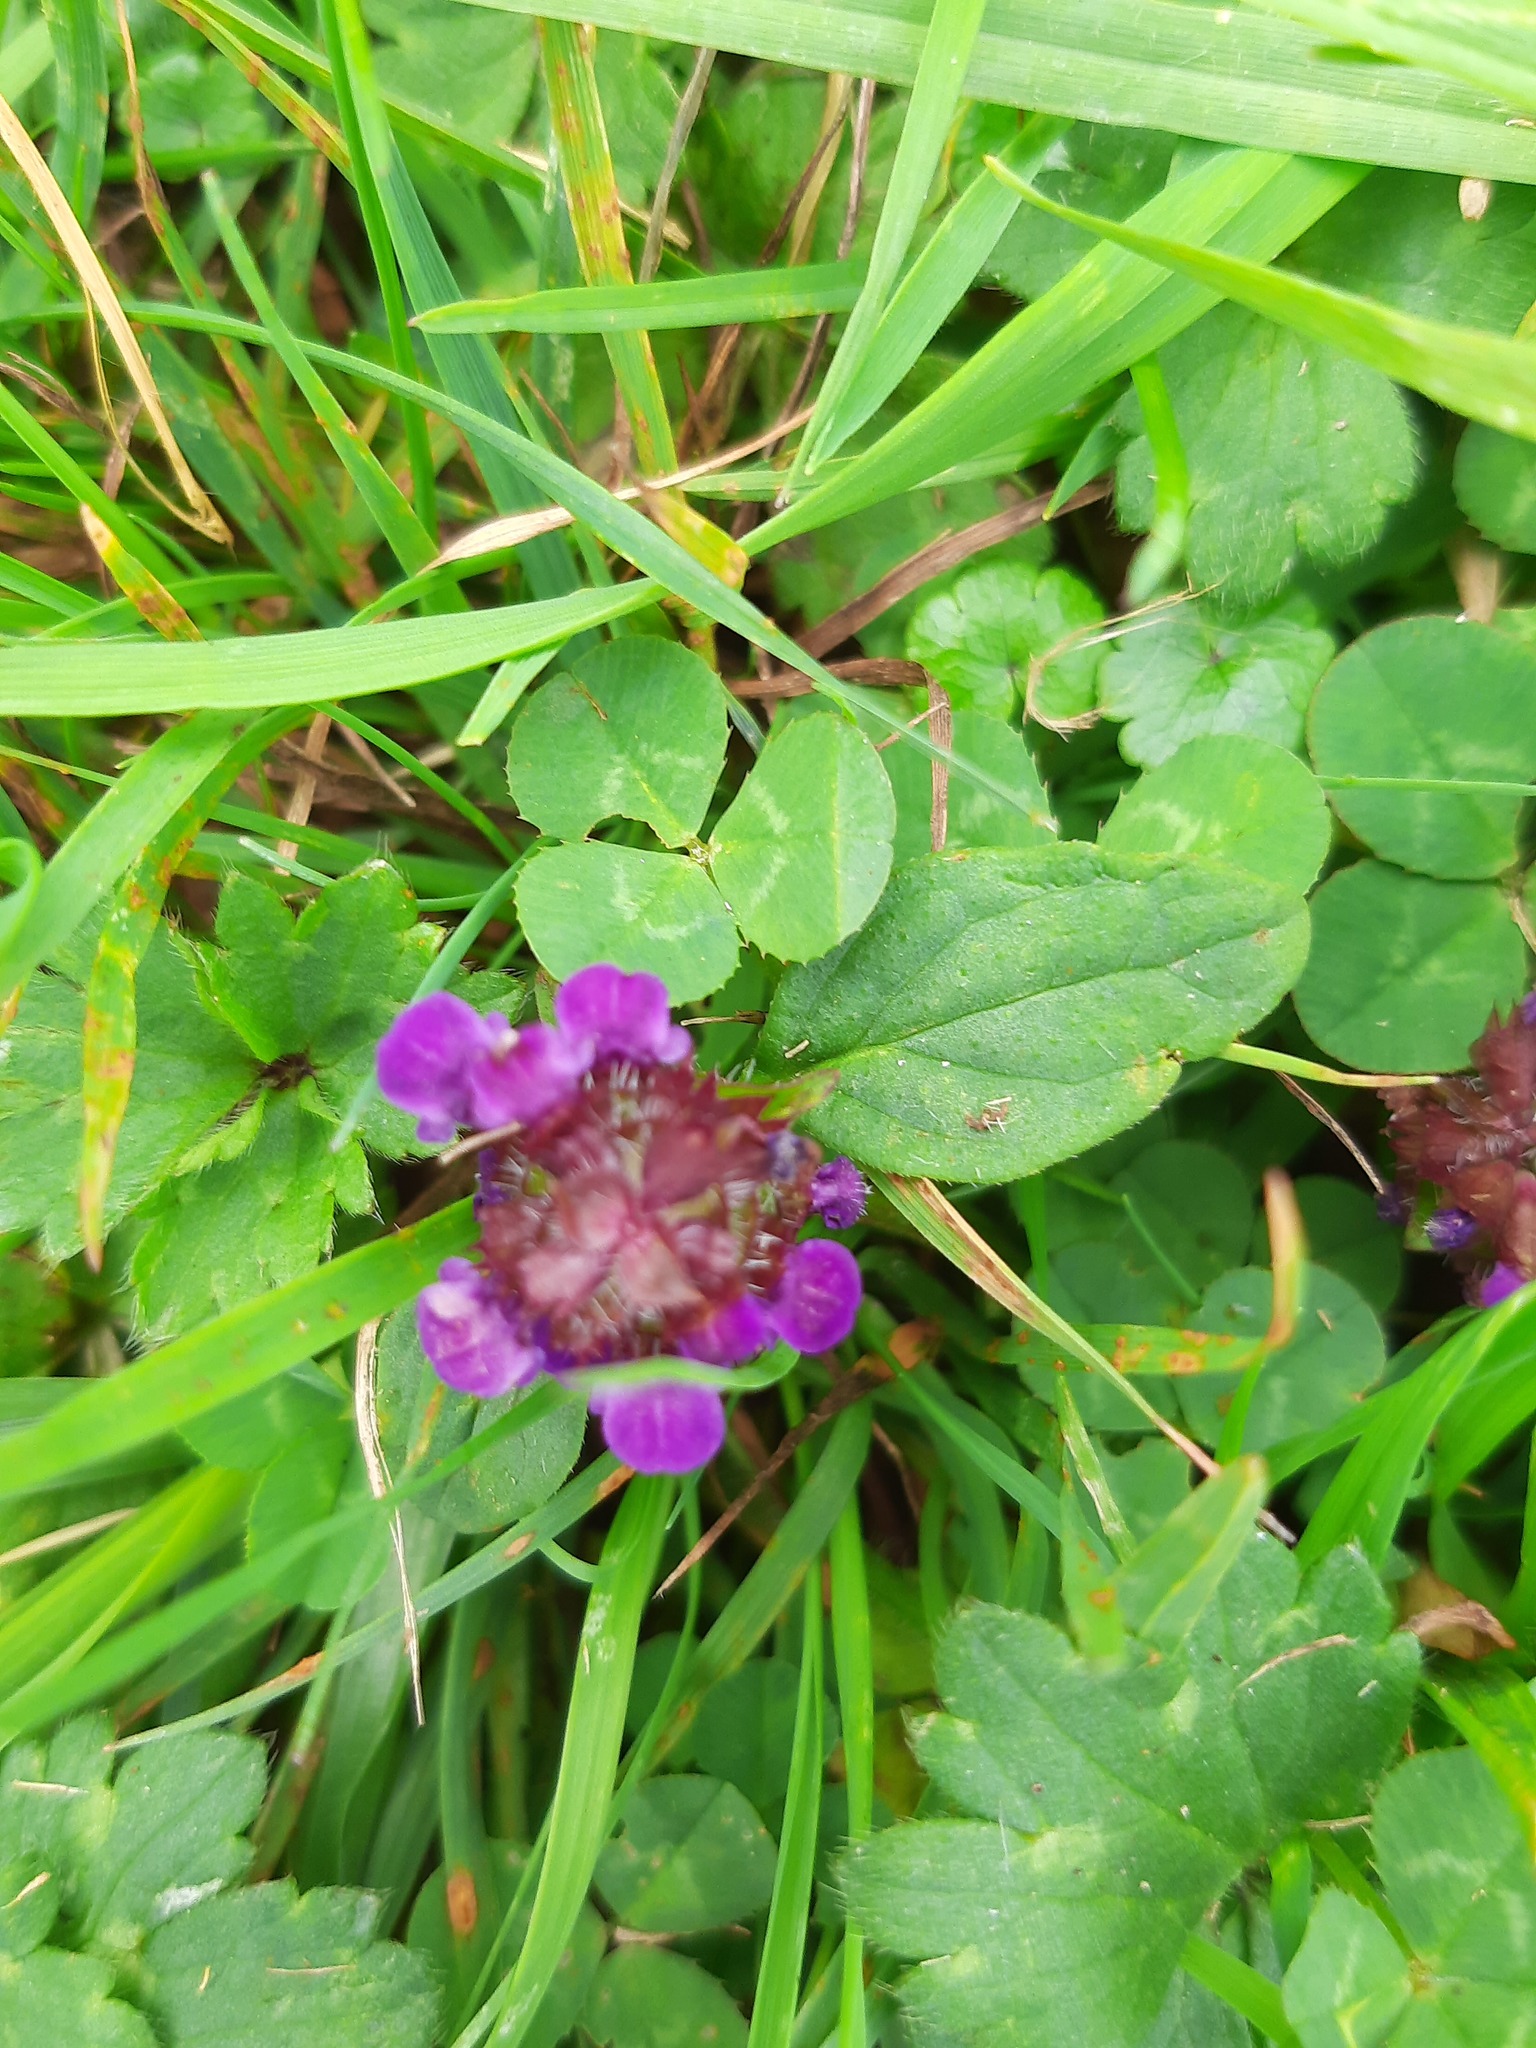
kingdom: Plantae
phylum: Tracheophyta
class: Magnoliopsida
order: Lamiales
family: Lamiaceae
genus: Prunella
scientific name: Prunella vulgaris
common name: Heal-all
